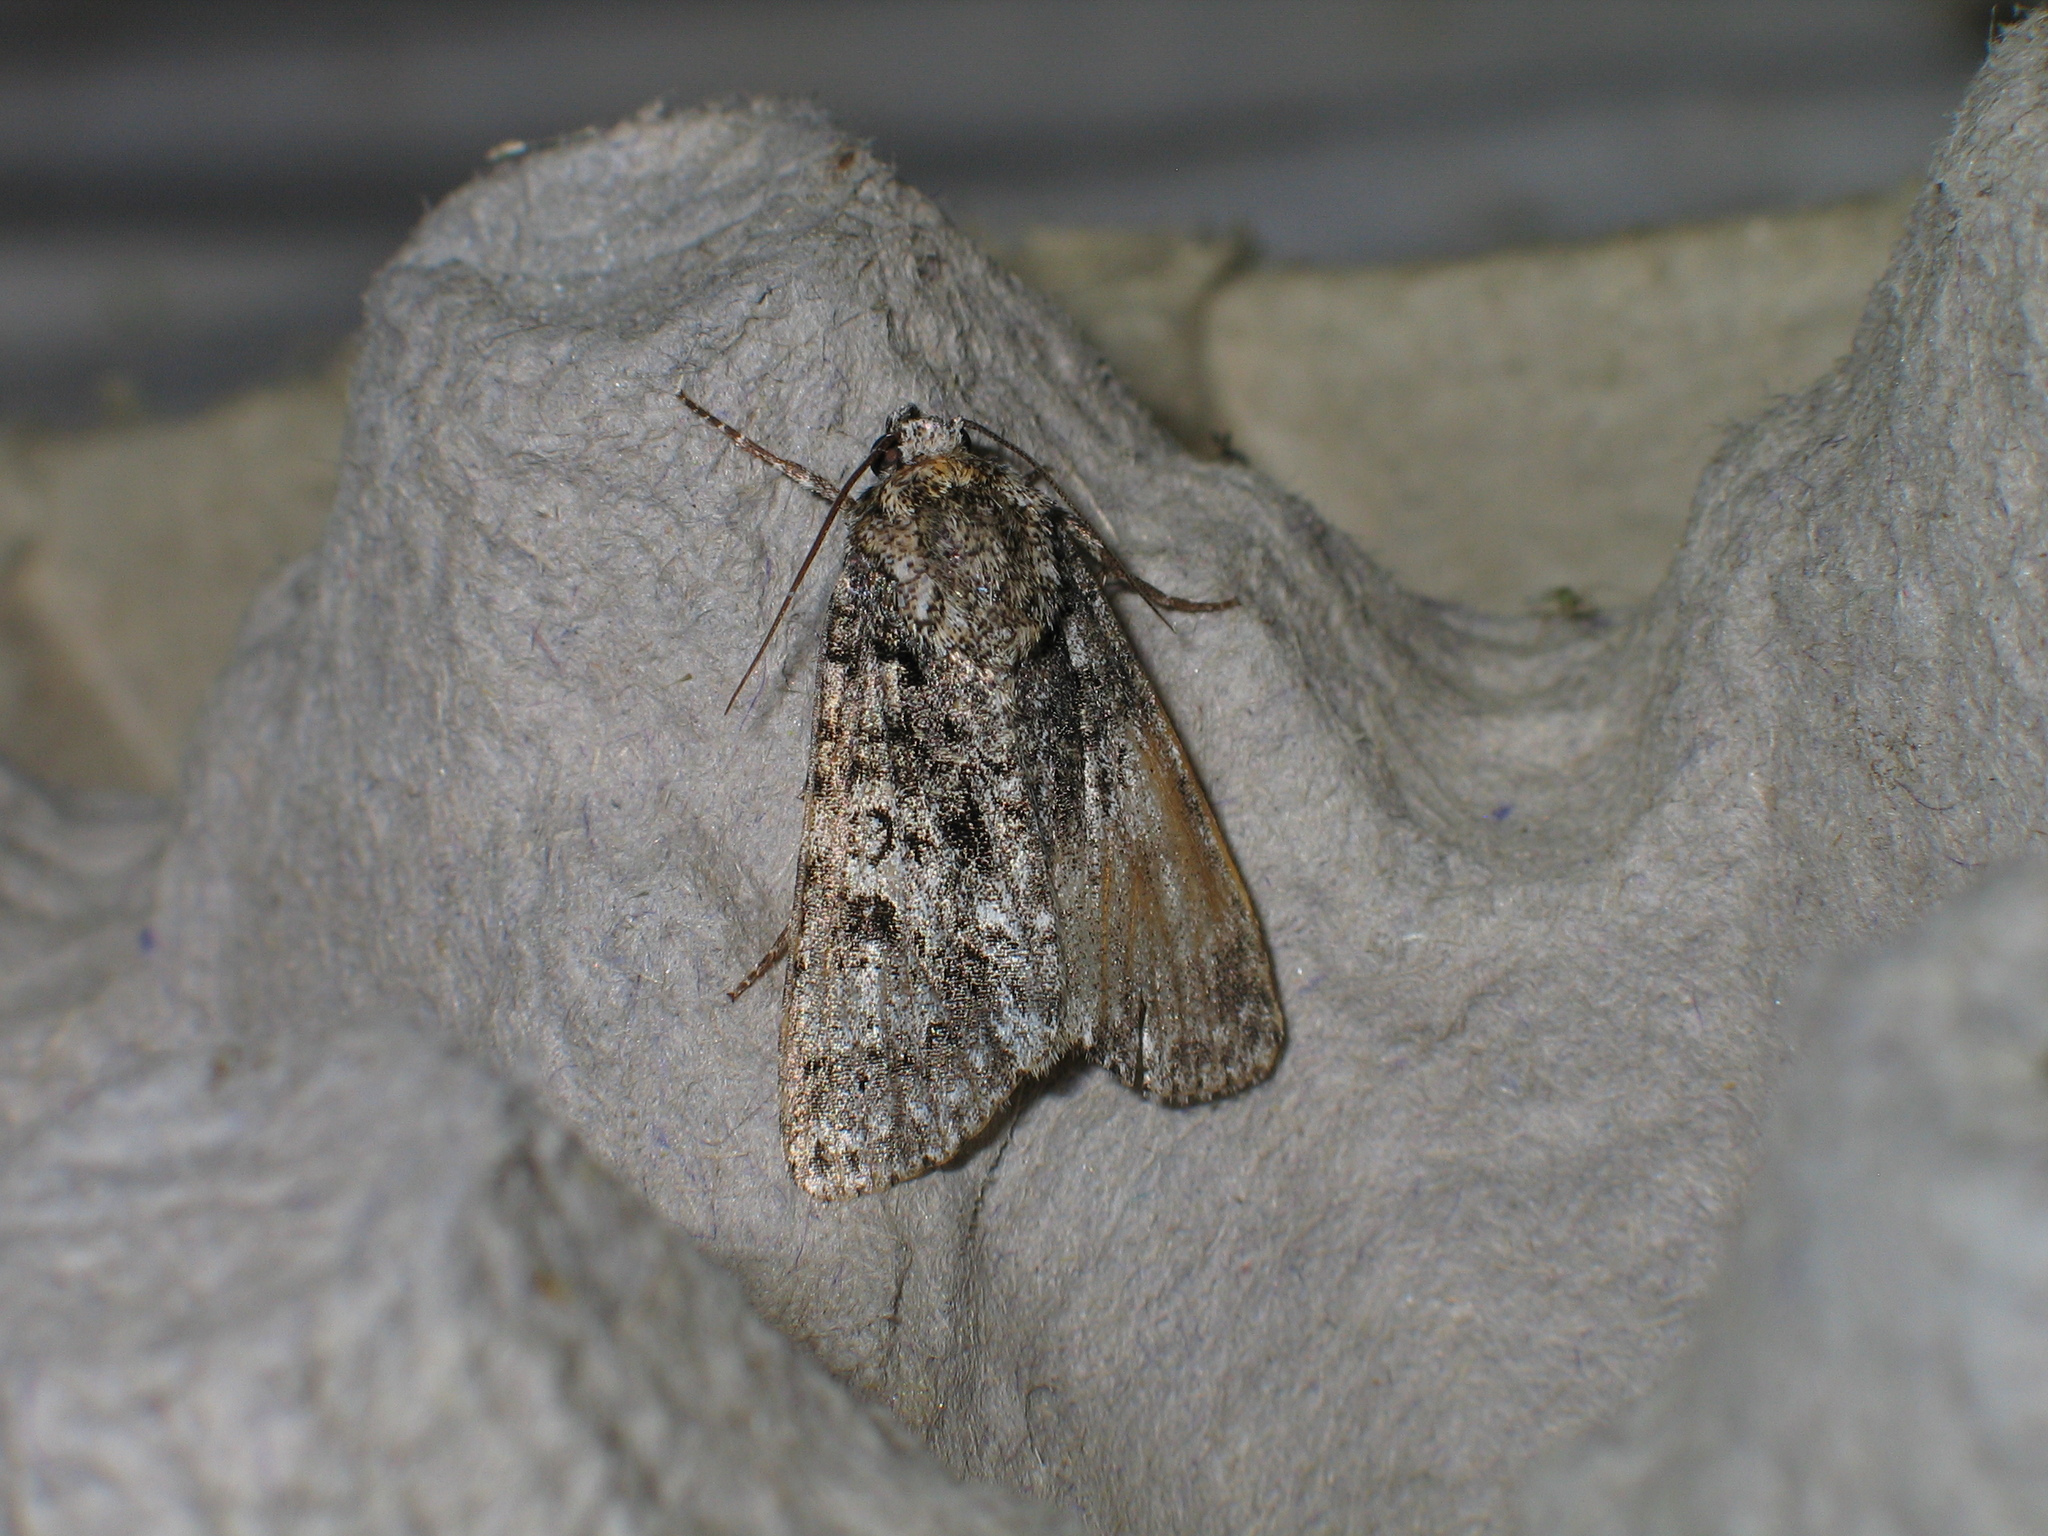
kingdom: Animalia
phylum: Arthropoda
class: Insecta
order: Lepidoptera
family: Noctuidae
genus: Acronicta
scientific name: Acronicta rumicis
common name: Knot grass
